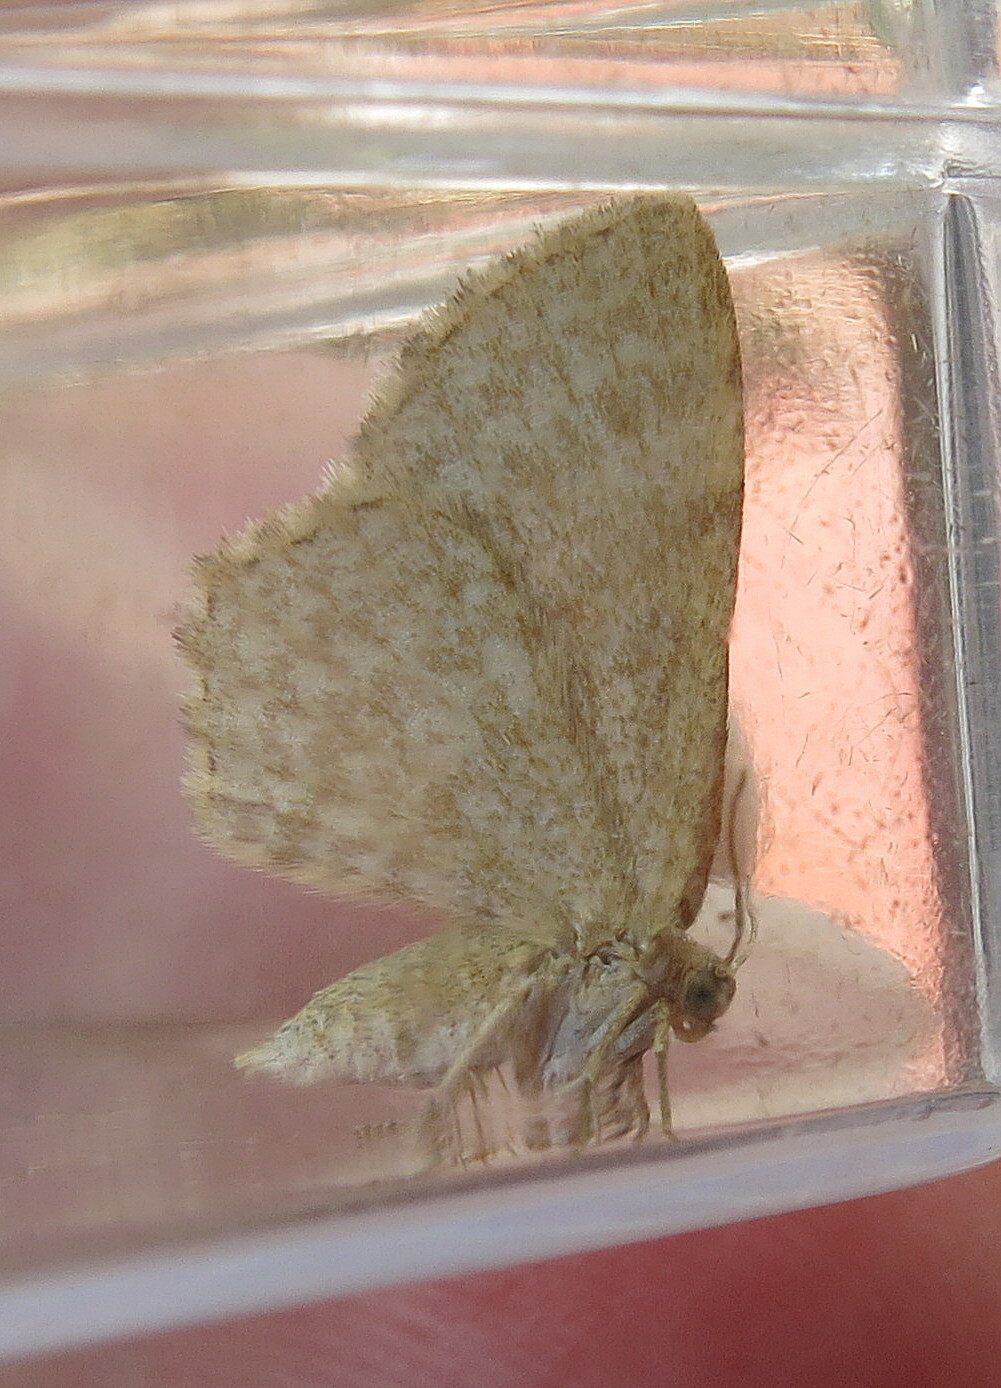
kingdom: Animalia
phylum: Arthropoda
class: Insecta
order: Lepidoptera
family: Geometridae
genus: Euchoeca
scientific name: Euchoeca nebulata
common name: Dingy shell
